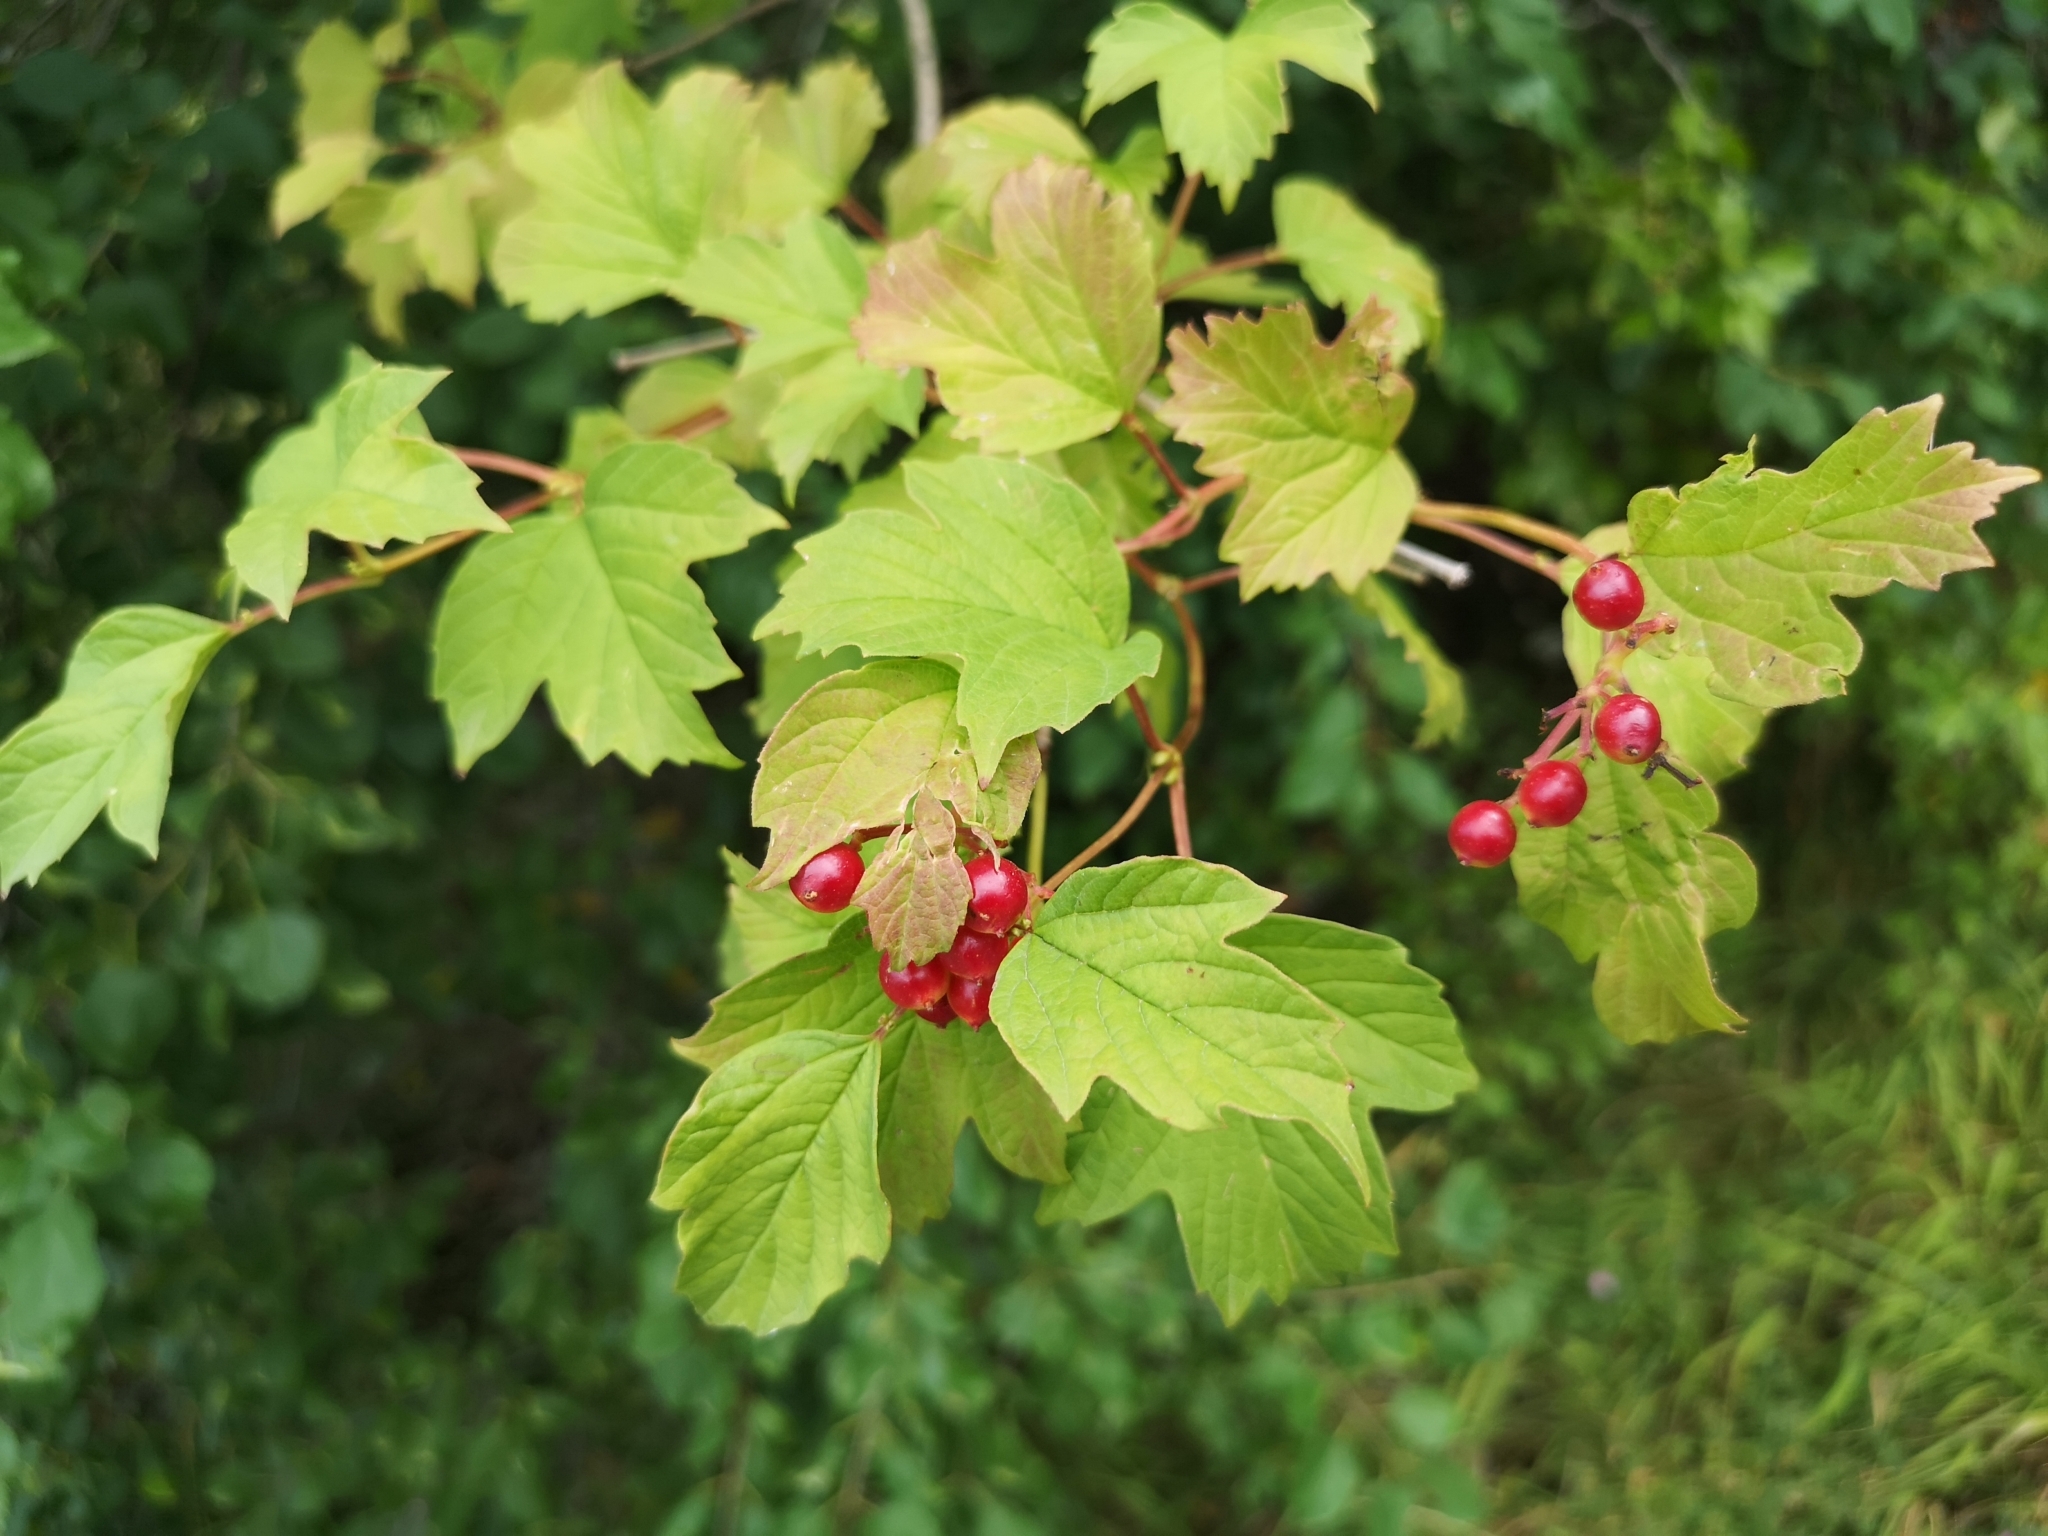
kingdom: Plantae
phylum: Tracheophyta
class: Magnoliopsida
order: Dipsacales
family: Viburnaceae
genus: Viburnum
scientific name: Viburnum opulus
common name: Guelder-rose
